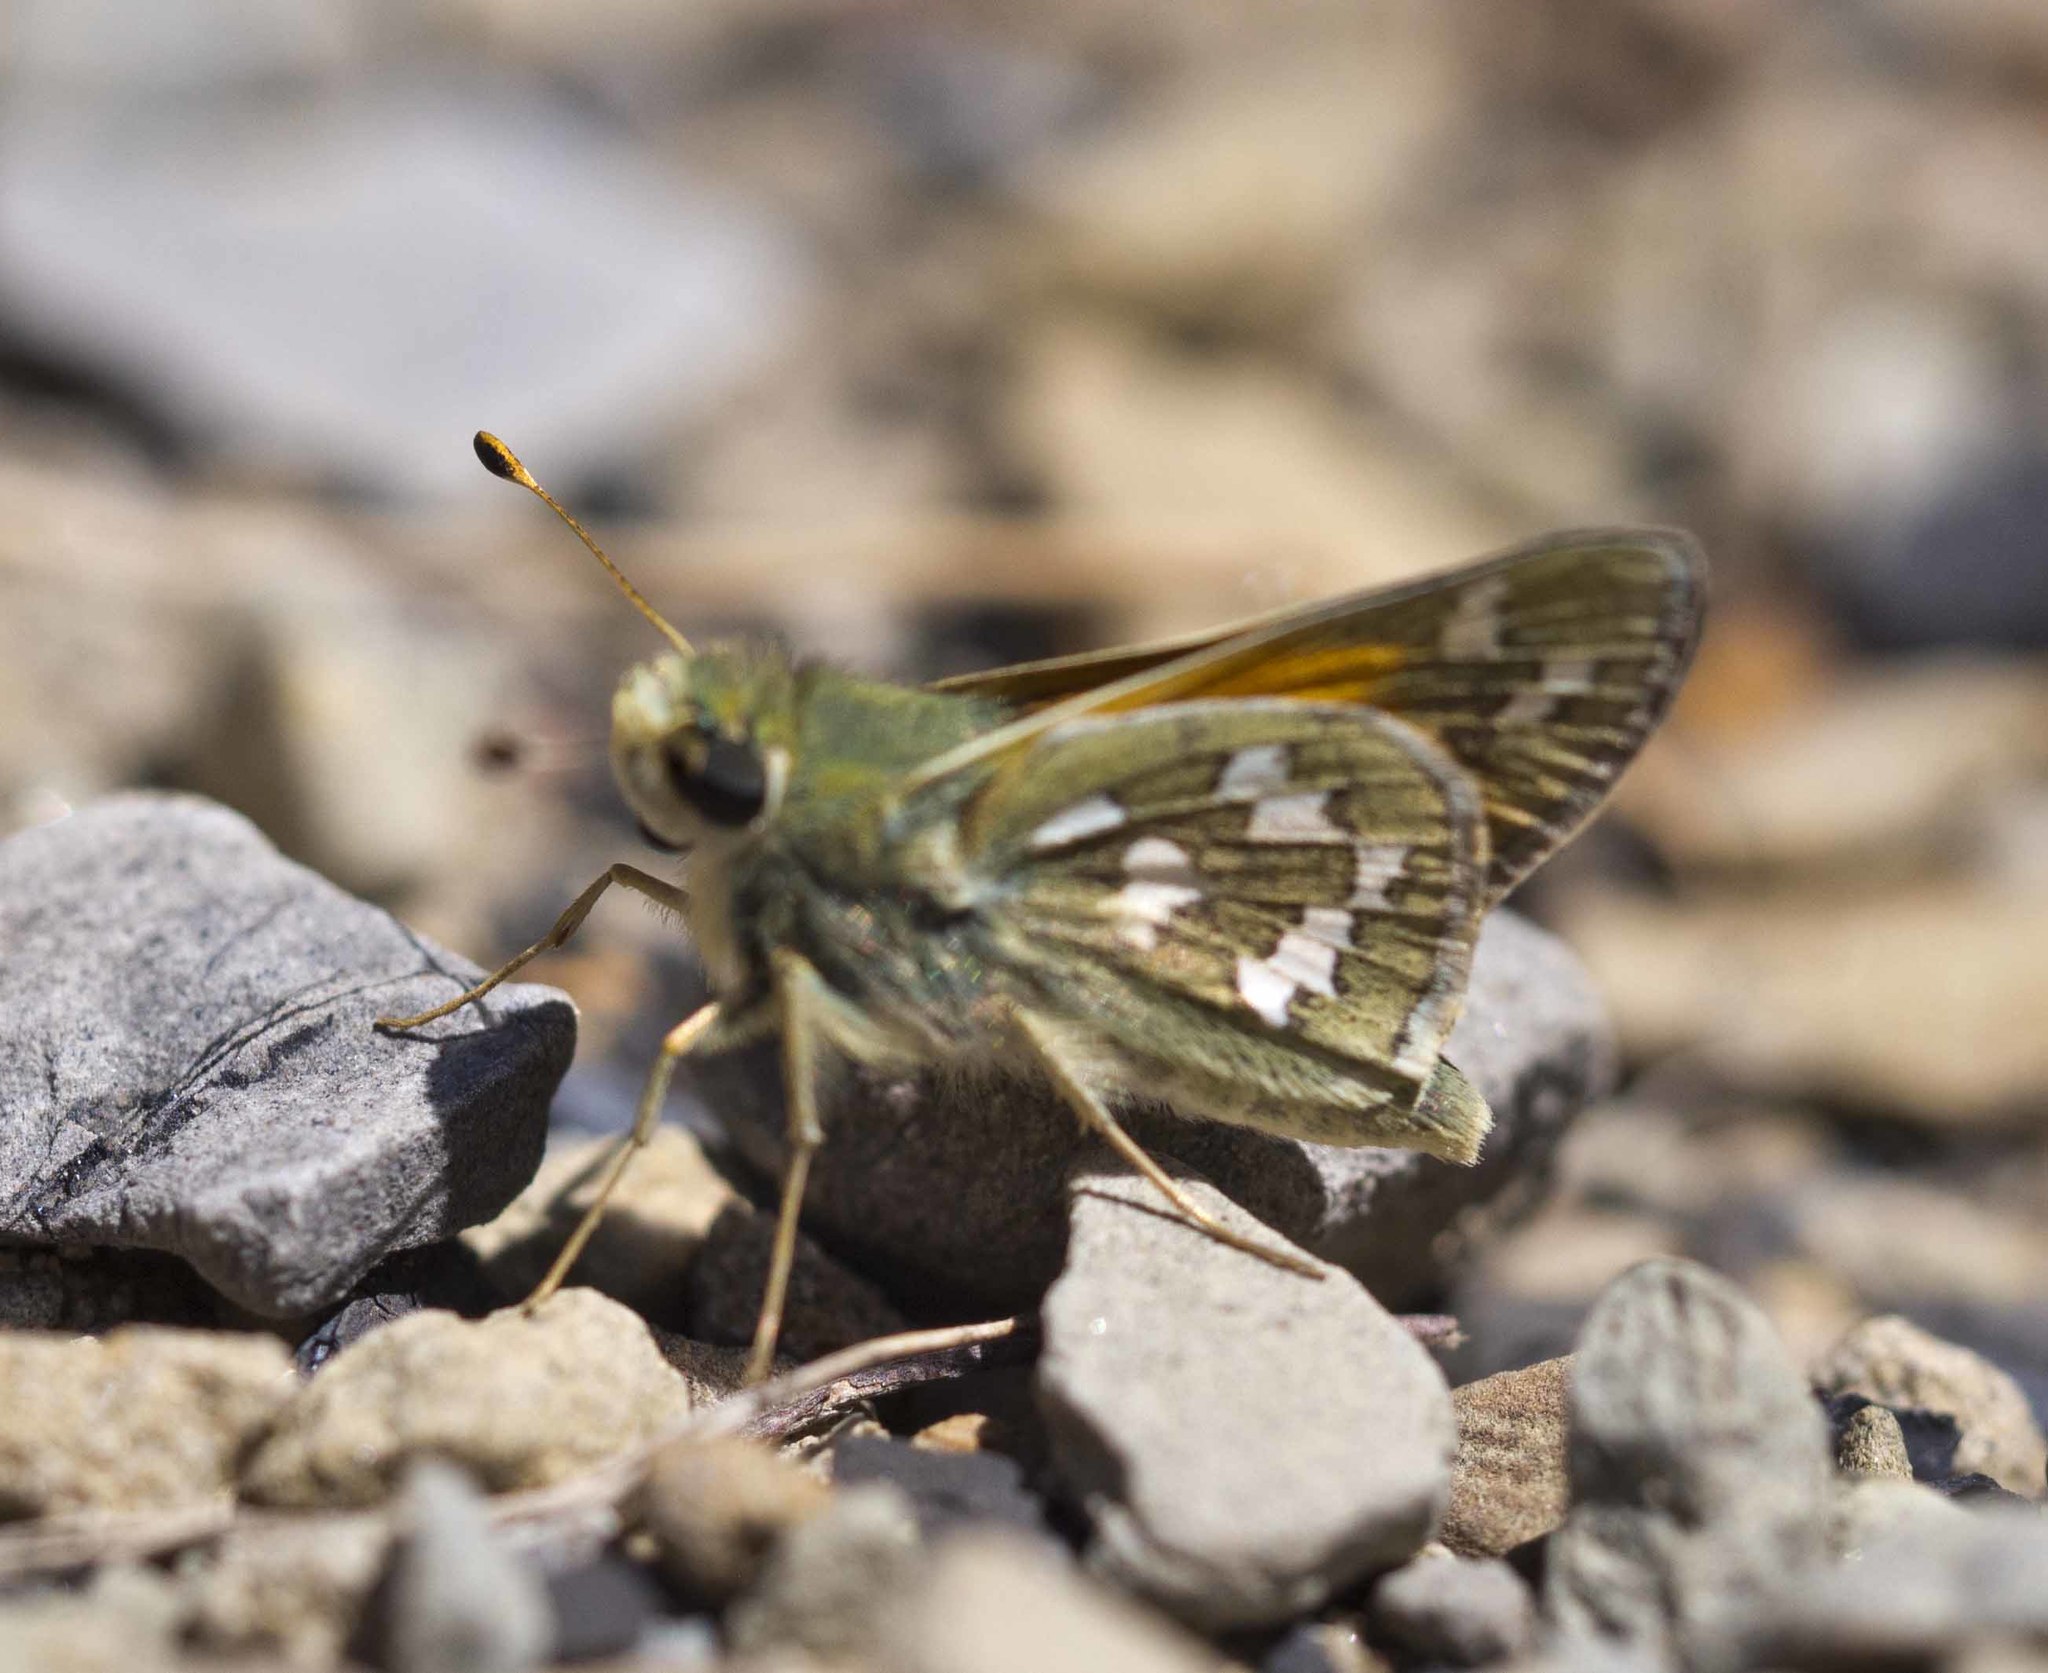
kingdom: Animalia
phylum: Arthropoda
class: Insecta
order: Lepidoptera
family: Hesperiidae
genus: Hesperia
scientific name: Hesperia juba
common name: Juba skipper
